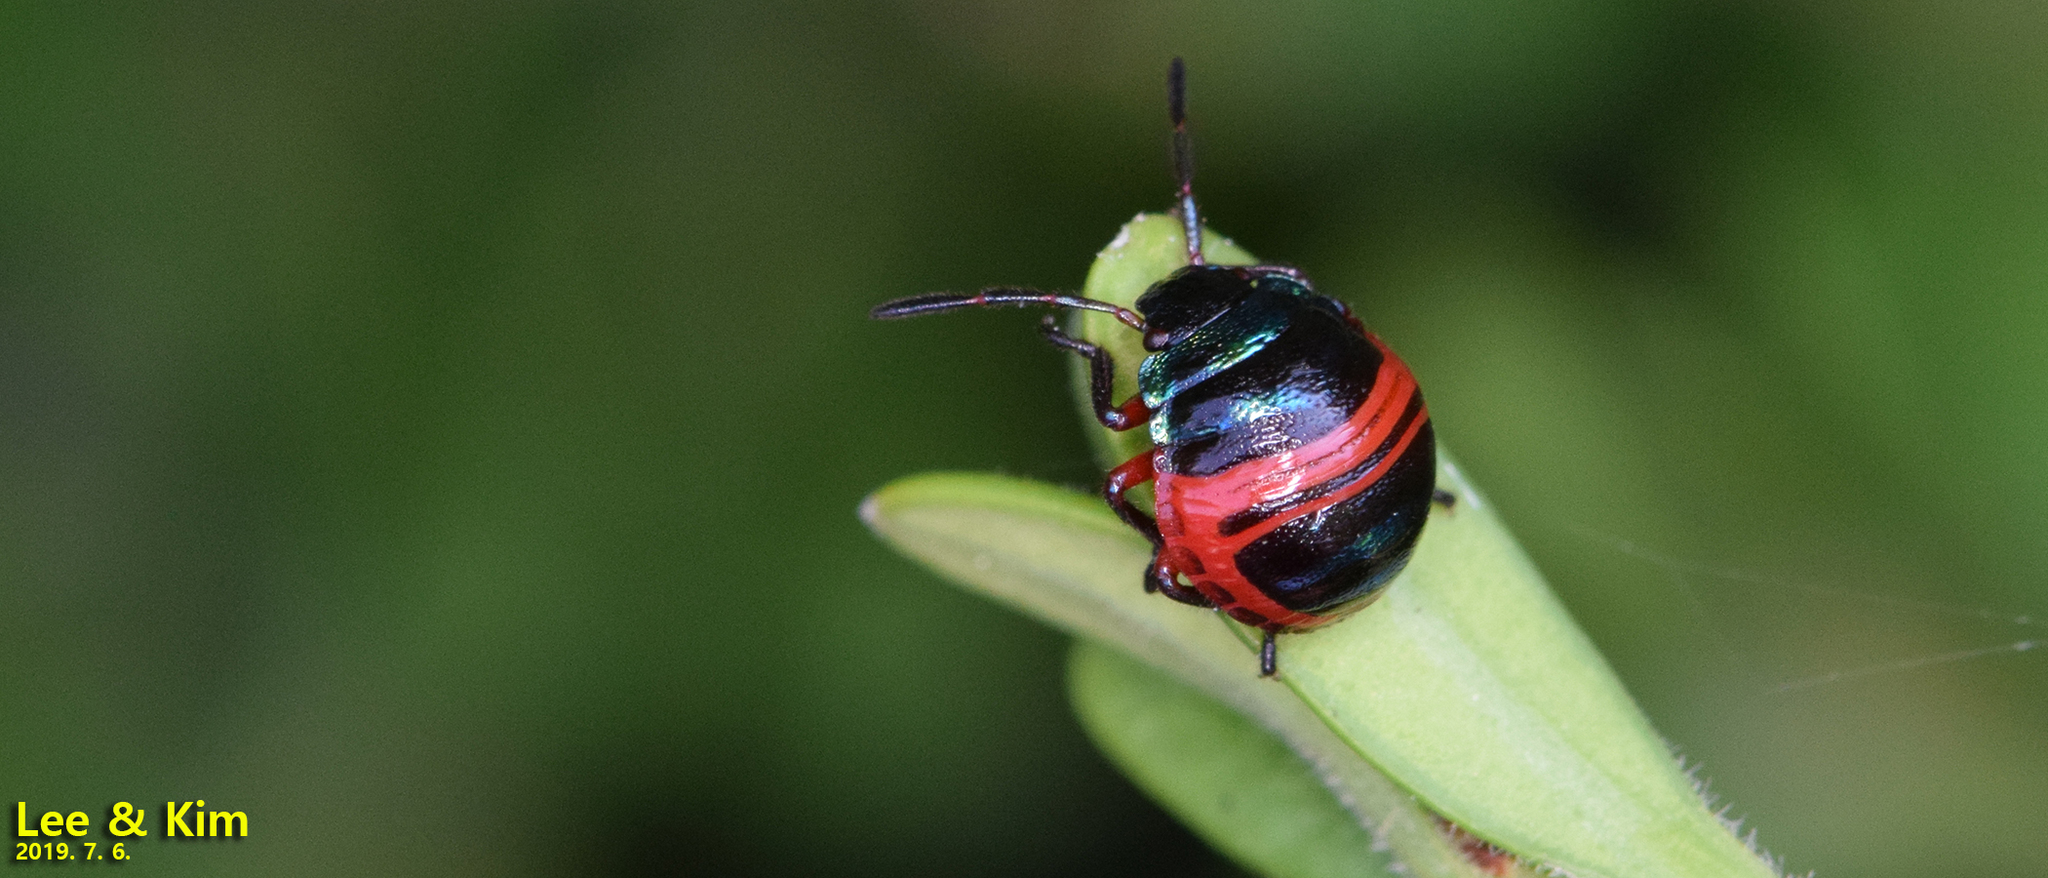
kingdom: Animalia
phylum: Arthropoda
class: Insecta
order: Hemiptera
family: Scutelleridae
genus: Poecilocoris
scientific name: Poecilocoris
